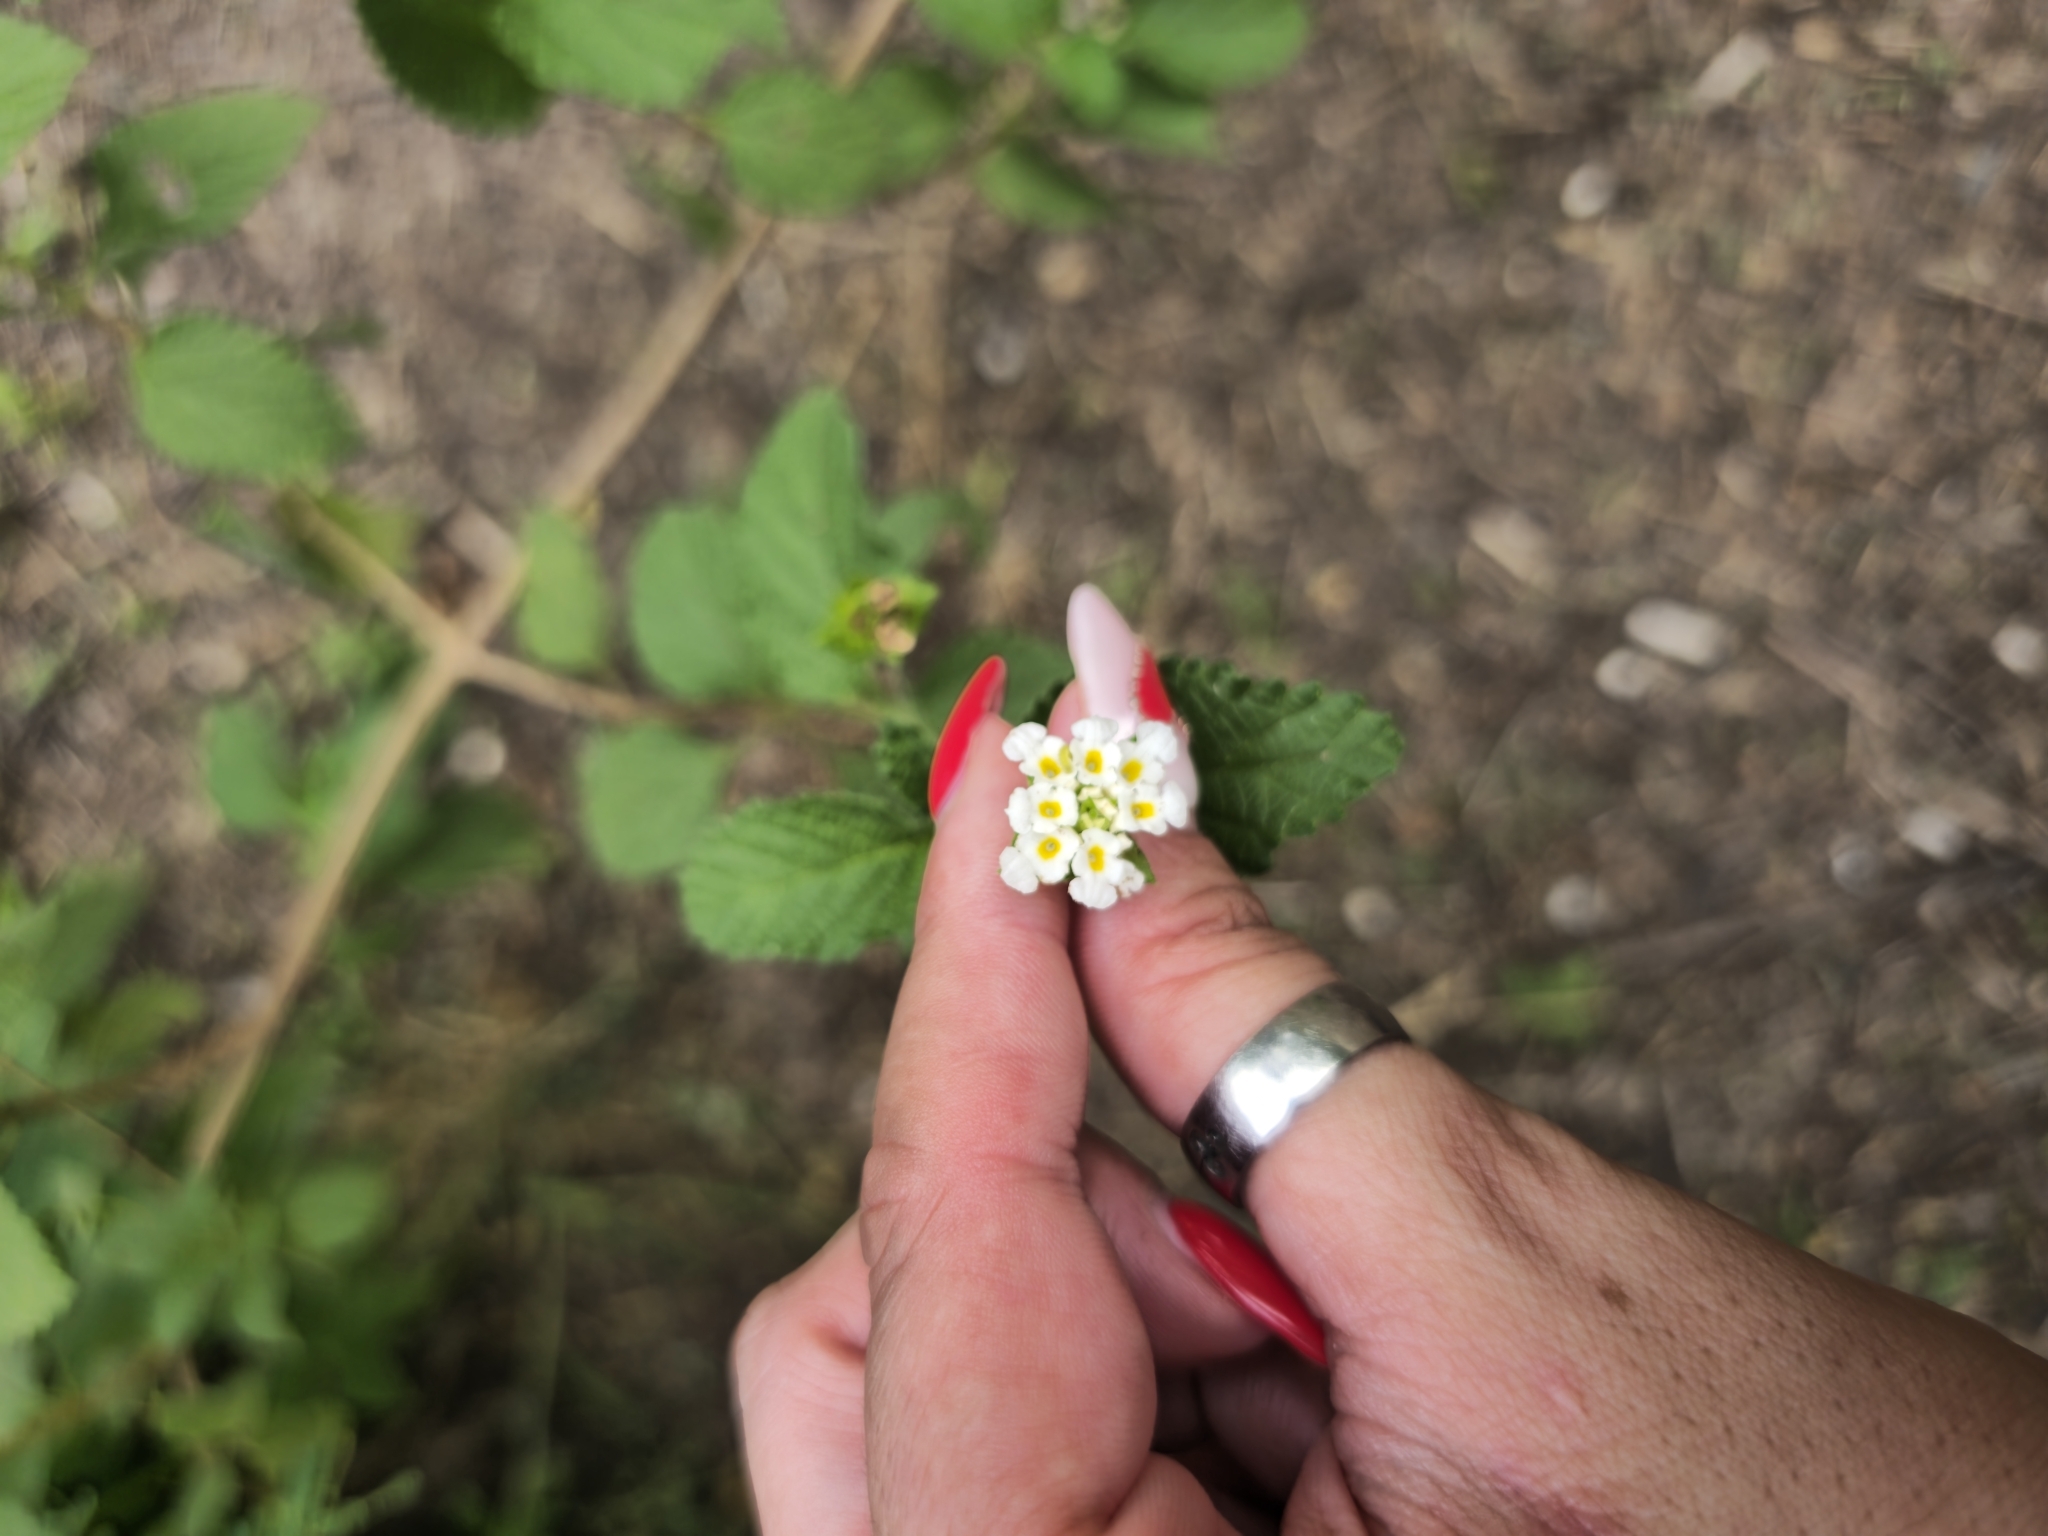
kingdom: Plantae
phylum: Tracheophyta
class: Magnoliopsida
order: Lamiales
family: Verbenaceae
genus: Lantana
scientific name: Lantana tilcarensis
